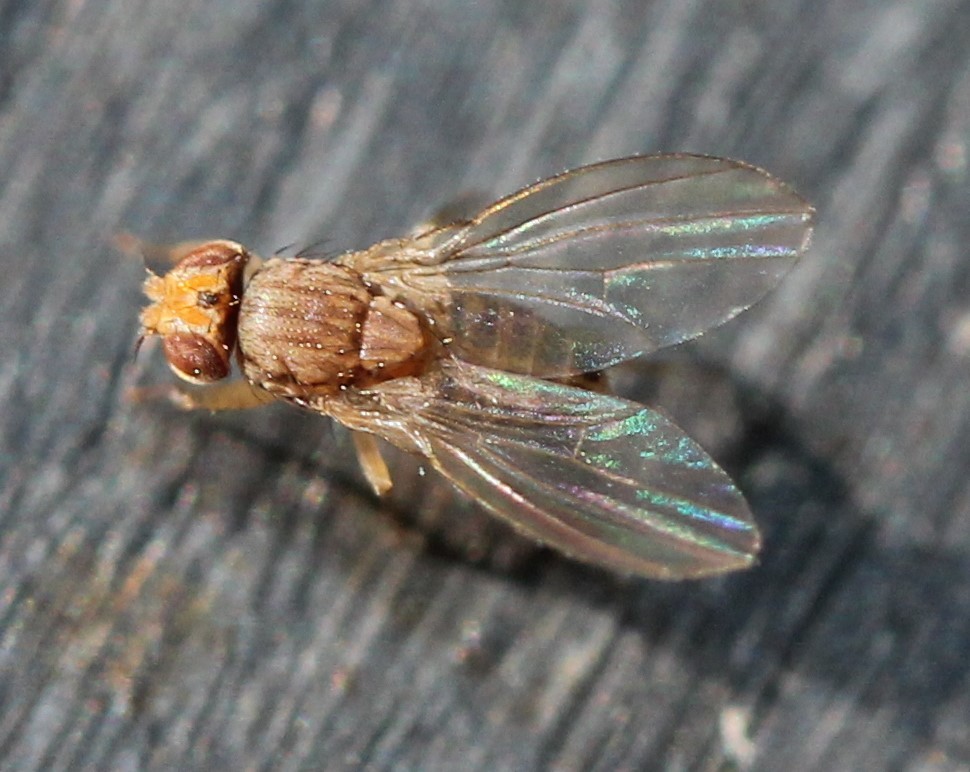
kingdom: Animalia
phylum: Arthropoda
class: Insecta
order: Diptera
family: Drosophilidae
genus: Drosophila
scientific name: Drosophila busckii
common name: Pomace fly
